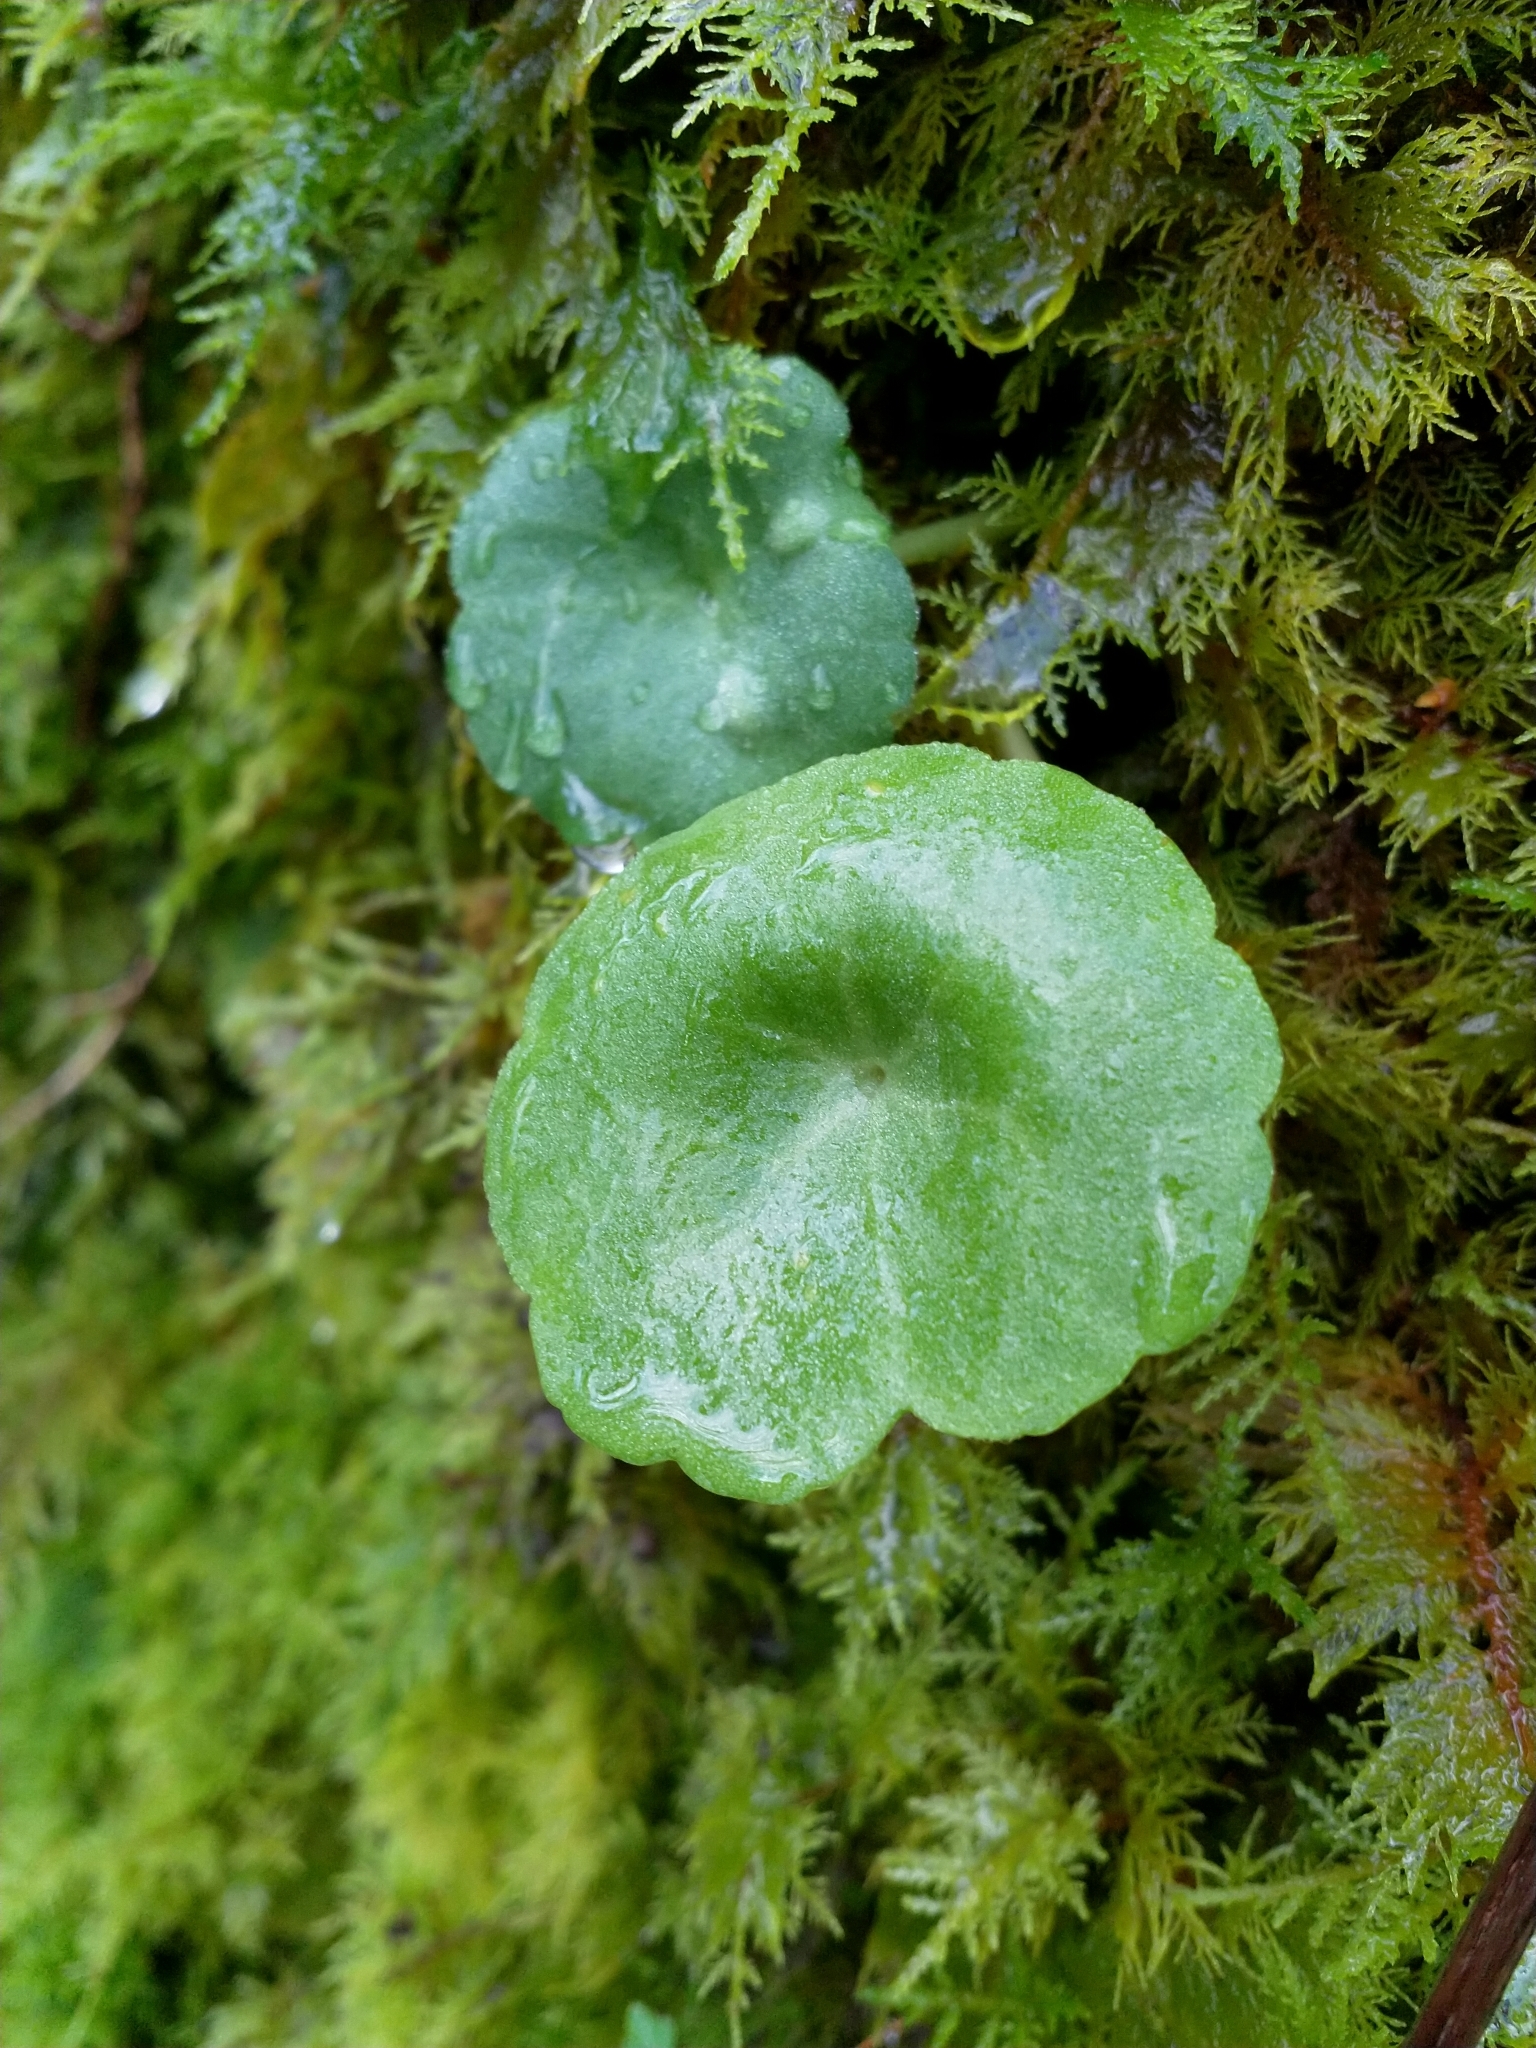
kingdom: Plantae
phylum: Tracheophyta
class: Magnoliopsida
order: Saxifragales
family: Crassulaceae
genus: Umbilicus
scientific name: Umbilicus rupestris
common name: Navelwort
